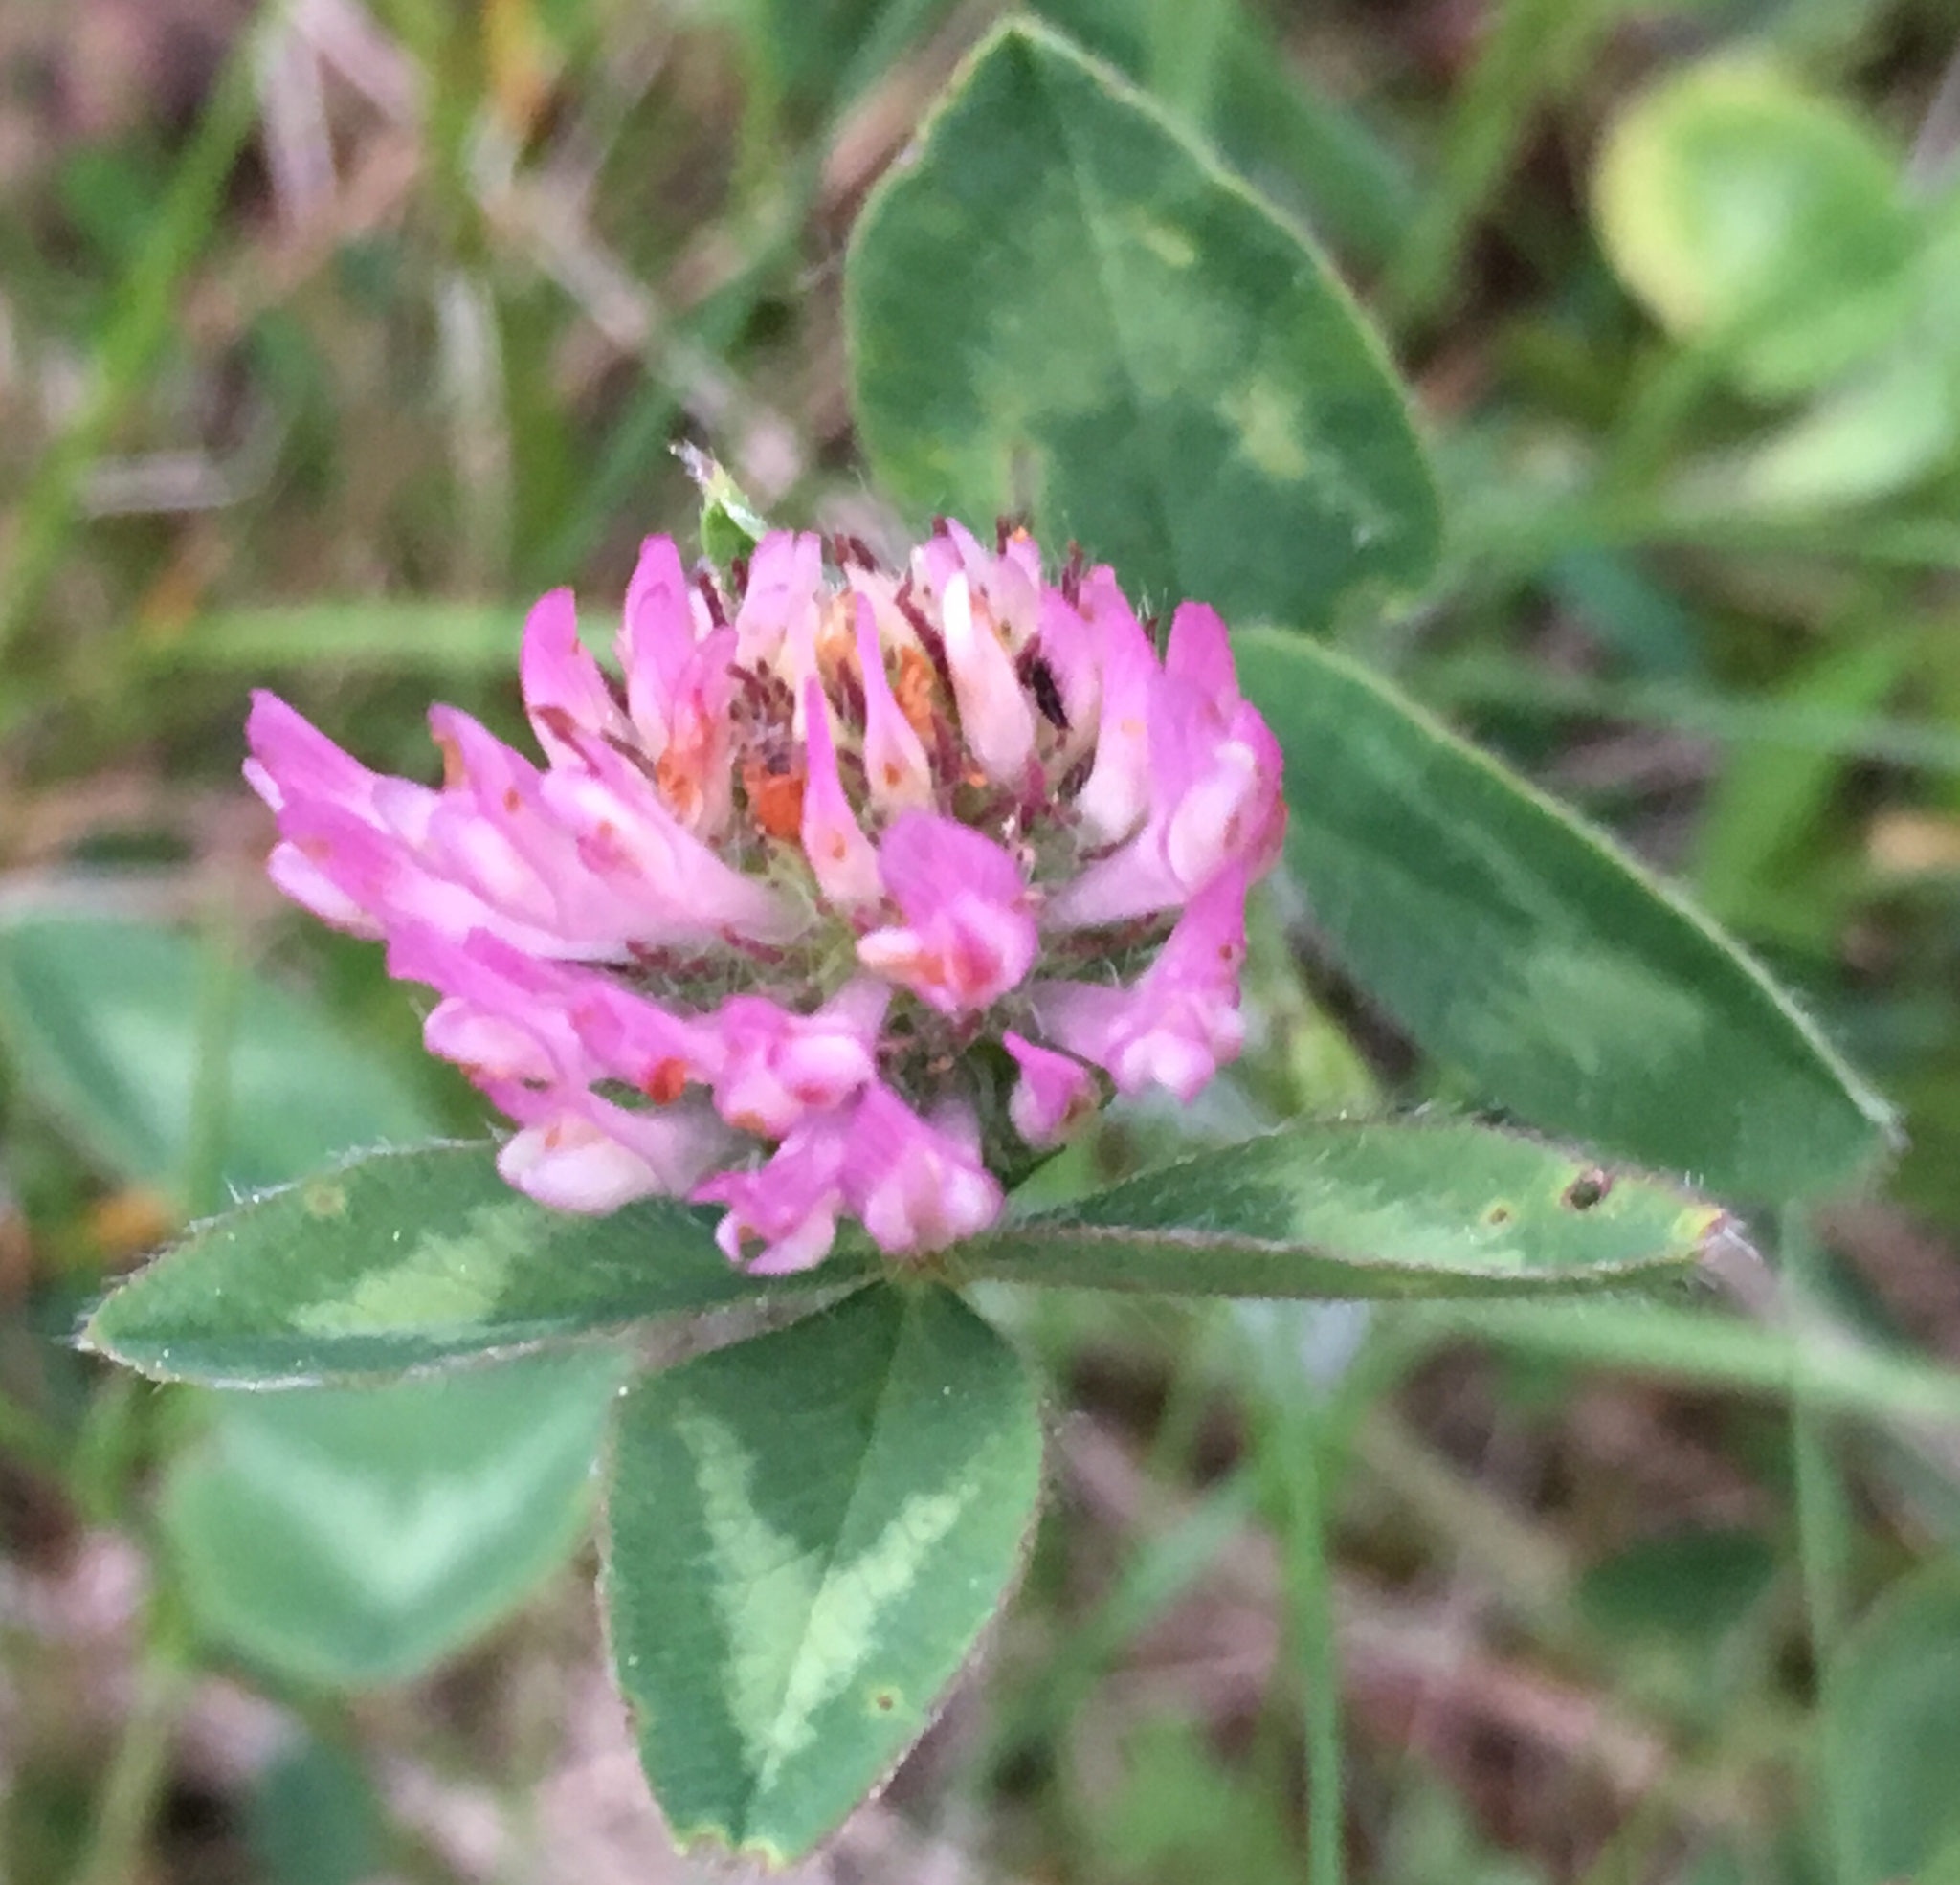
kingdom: Plantae
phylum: Tracheophyta
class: Magnoliopsida
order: Fabales
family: Fabaceae
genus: Trifolium
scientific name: Trifolium pratense
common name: Red clover
